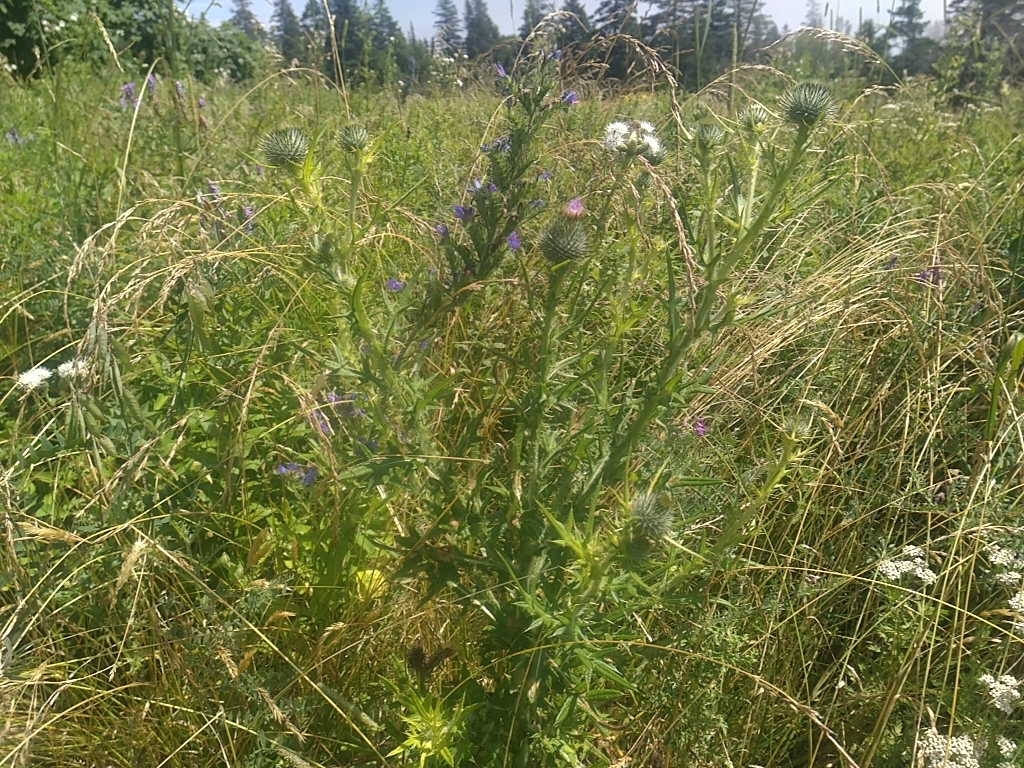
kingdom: Plantae
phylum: Tracheophyta
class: Magnoliopsida
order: Asterales
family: Asteraceae
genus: Cirsium
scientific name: Cirsium vulgare
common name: Bull thistle
